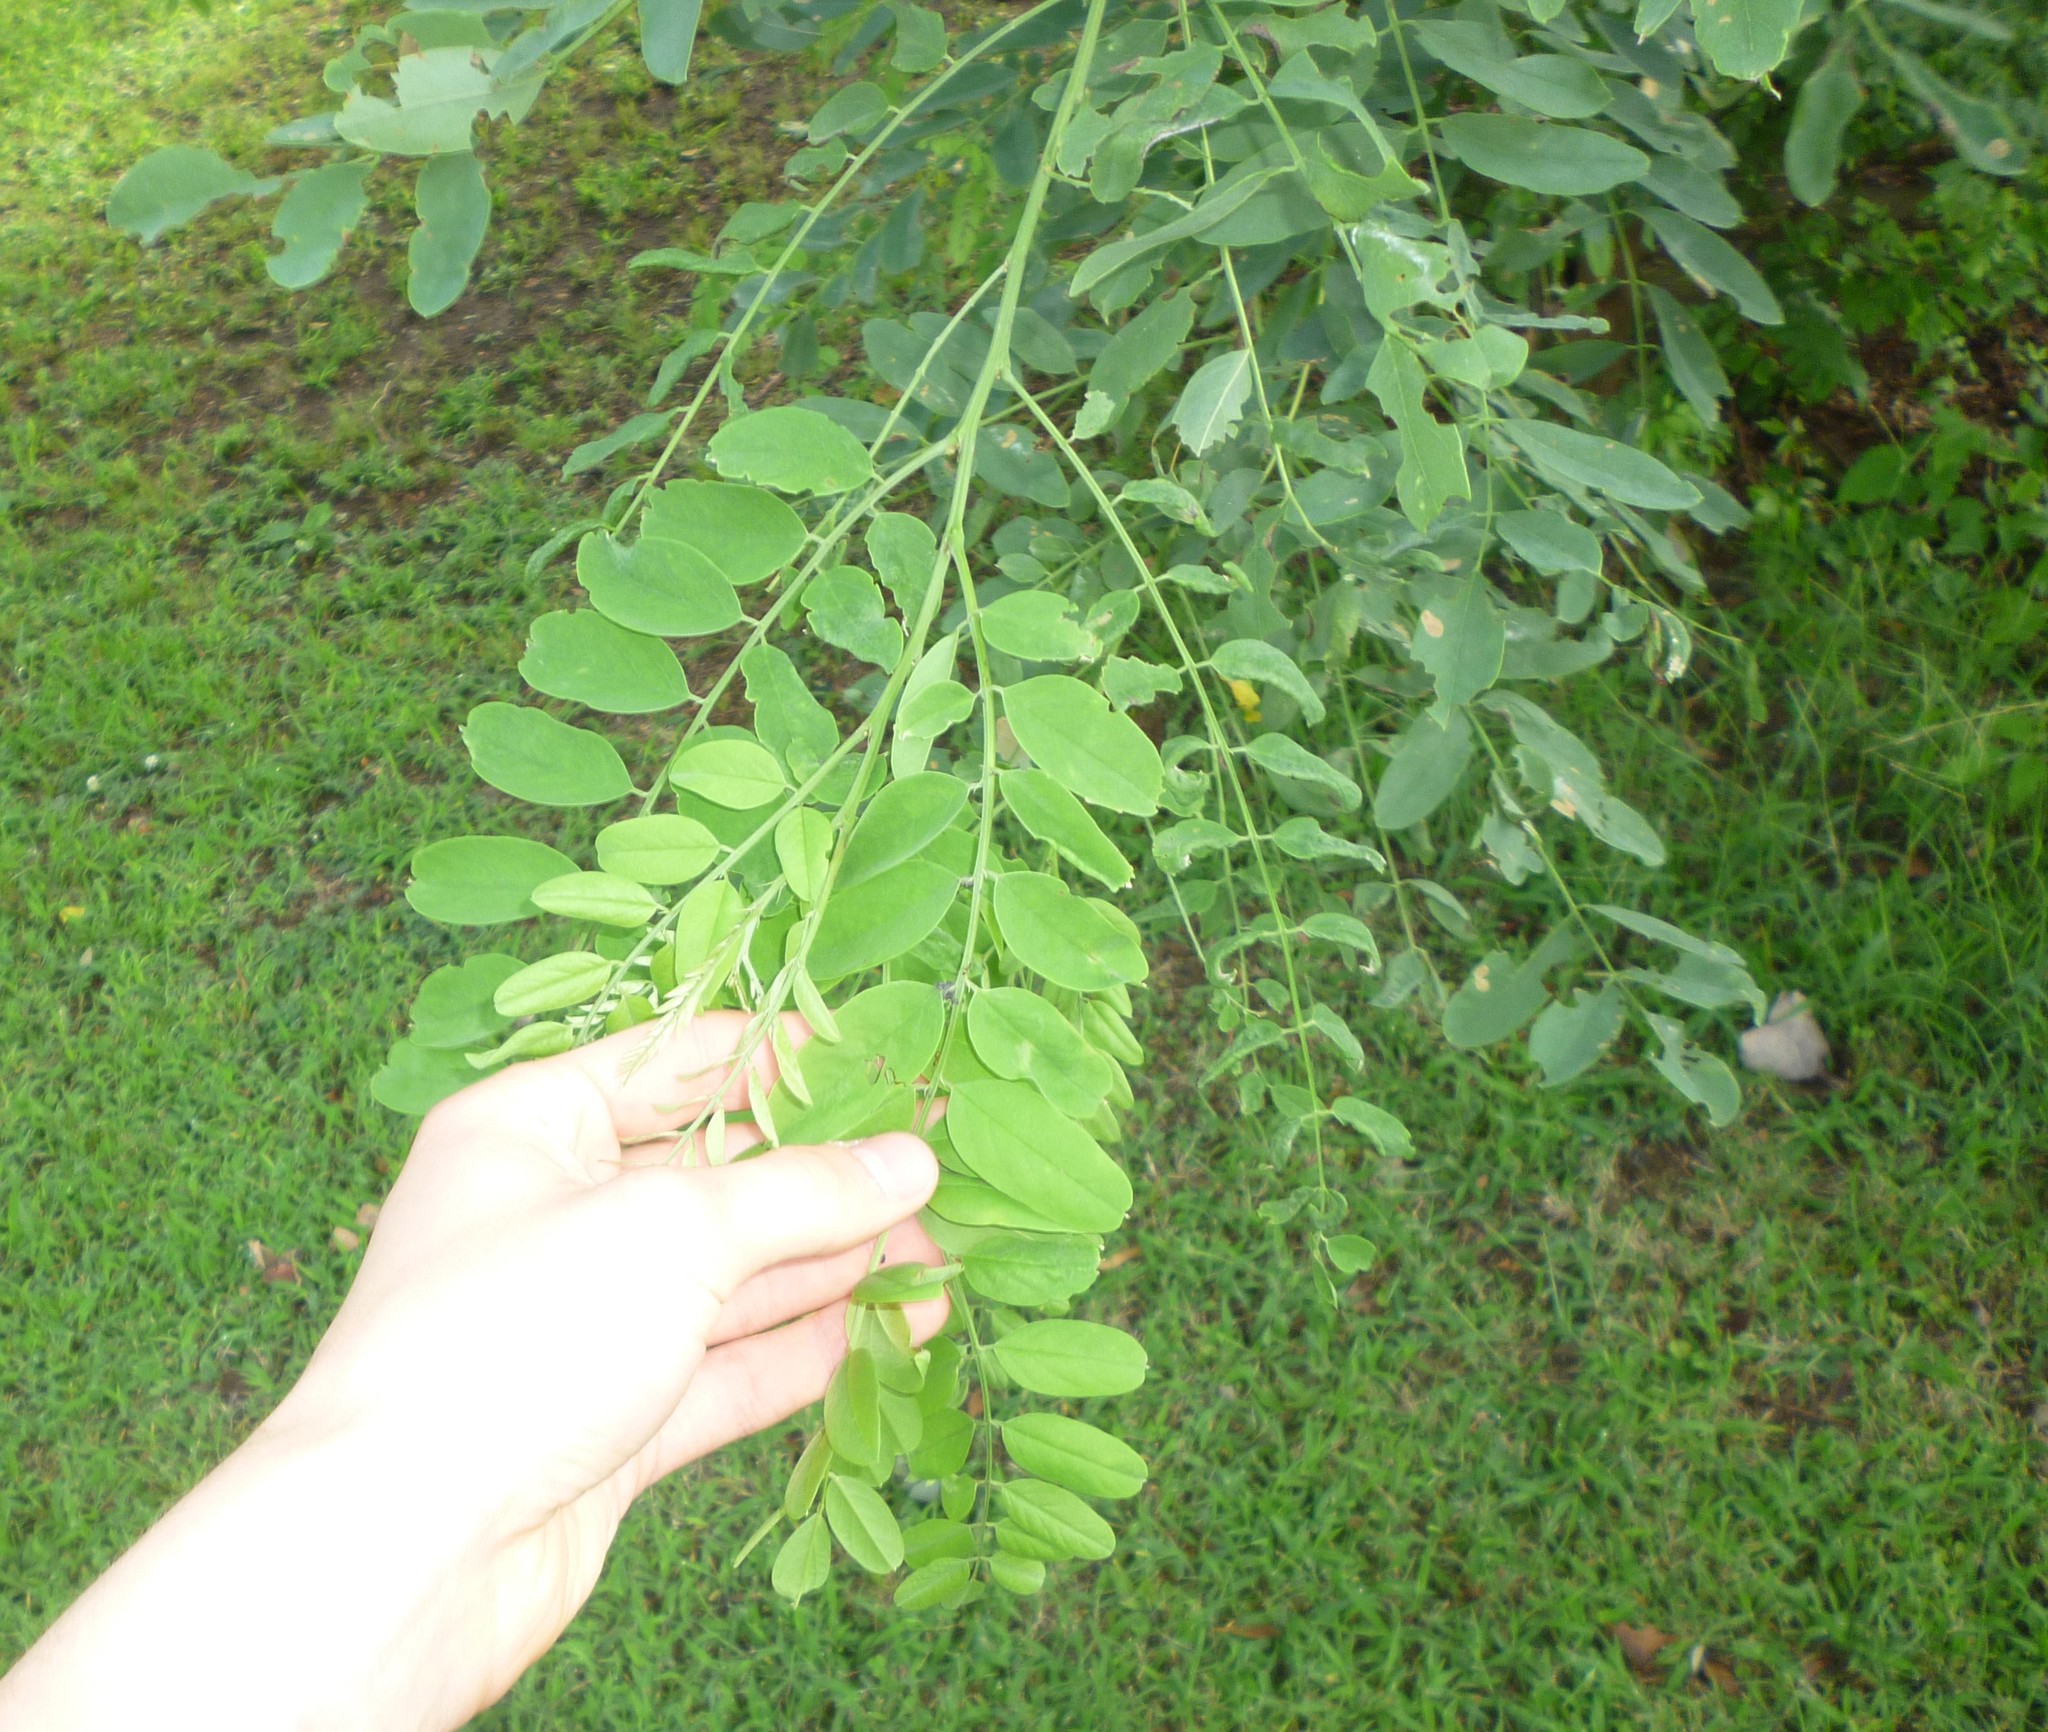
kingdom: Plantae
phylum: Tracheophyta
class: Magnoliopsida
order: Fabales
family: Fabaceae
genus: Robinia
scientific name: Robinia pseudoacacia
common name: Black locust
